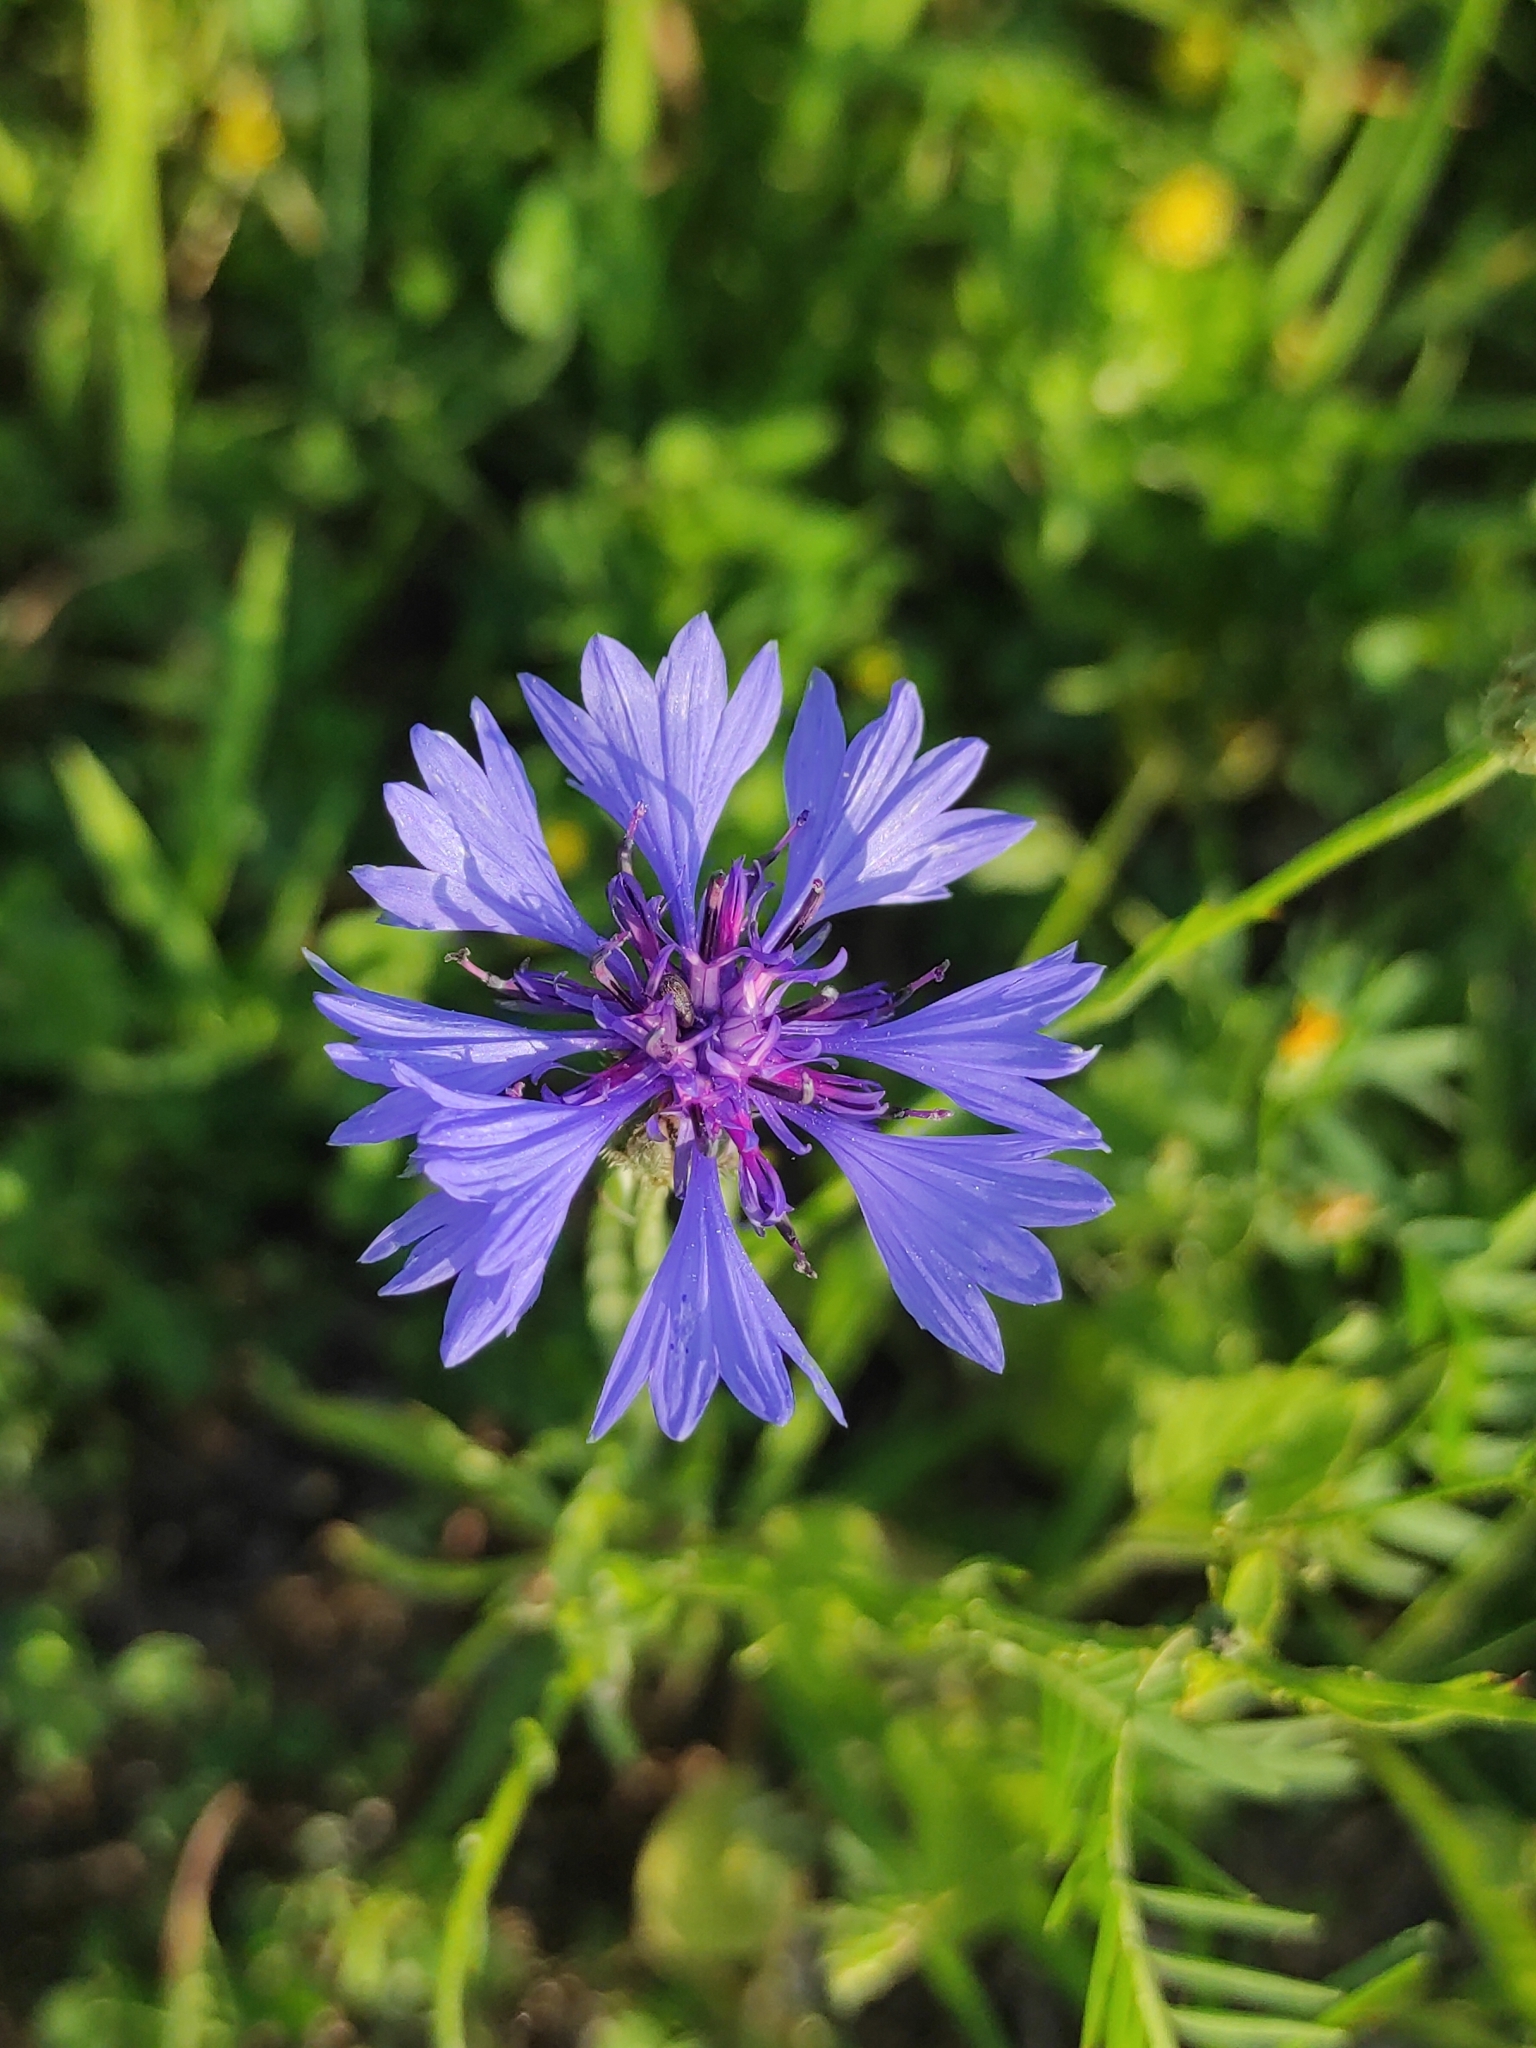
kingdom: Plantae
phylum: Tracheophyta
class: Magnoliopsida
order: Asterales
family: Asteraceae
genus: Centaurea
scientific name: Centaurea cyanus
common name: Cornflower
